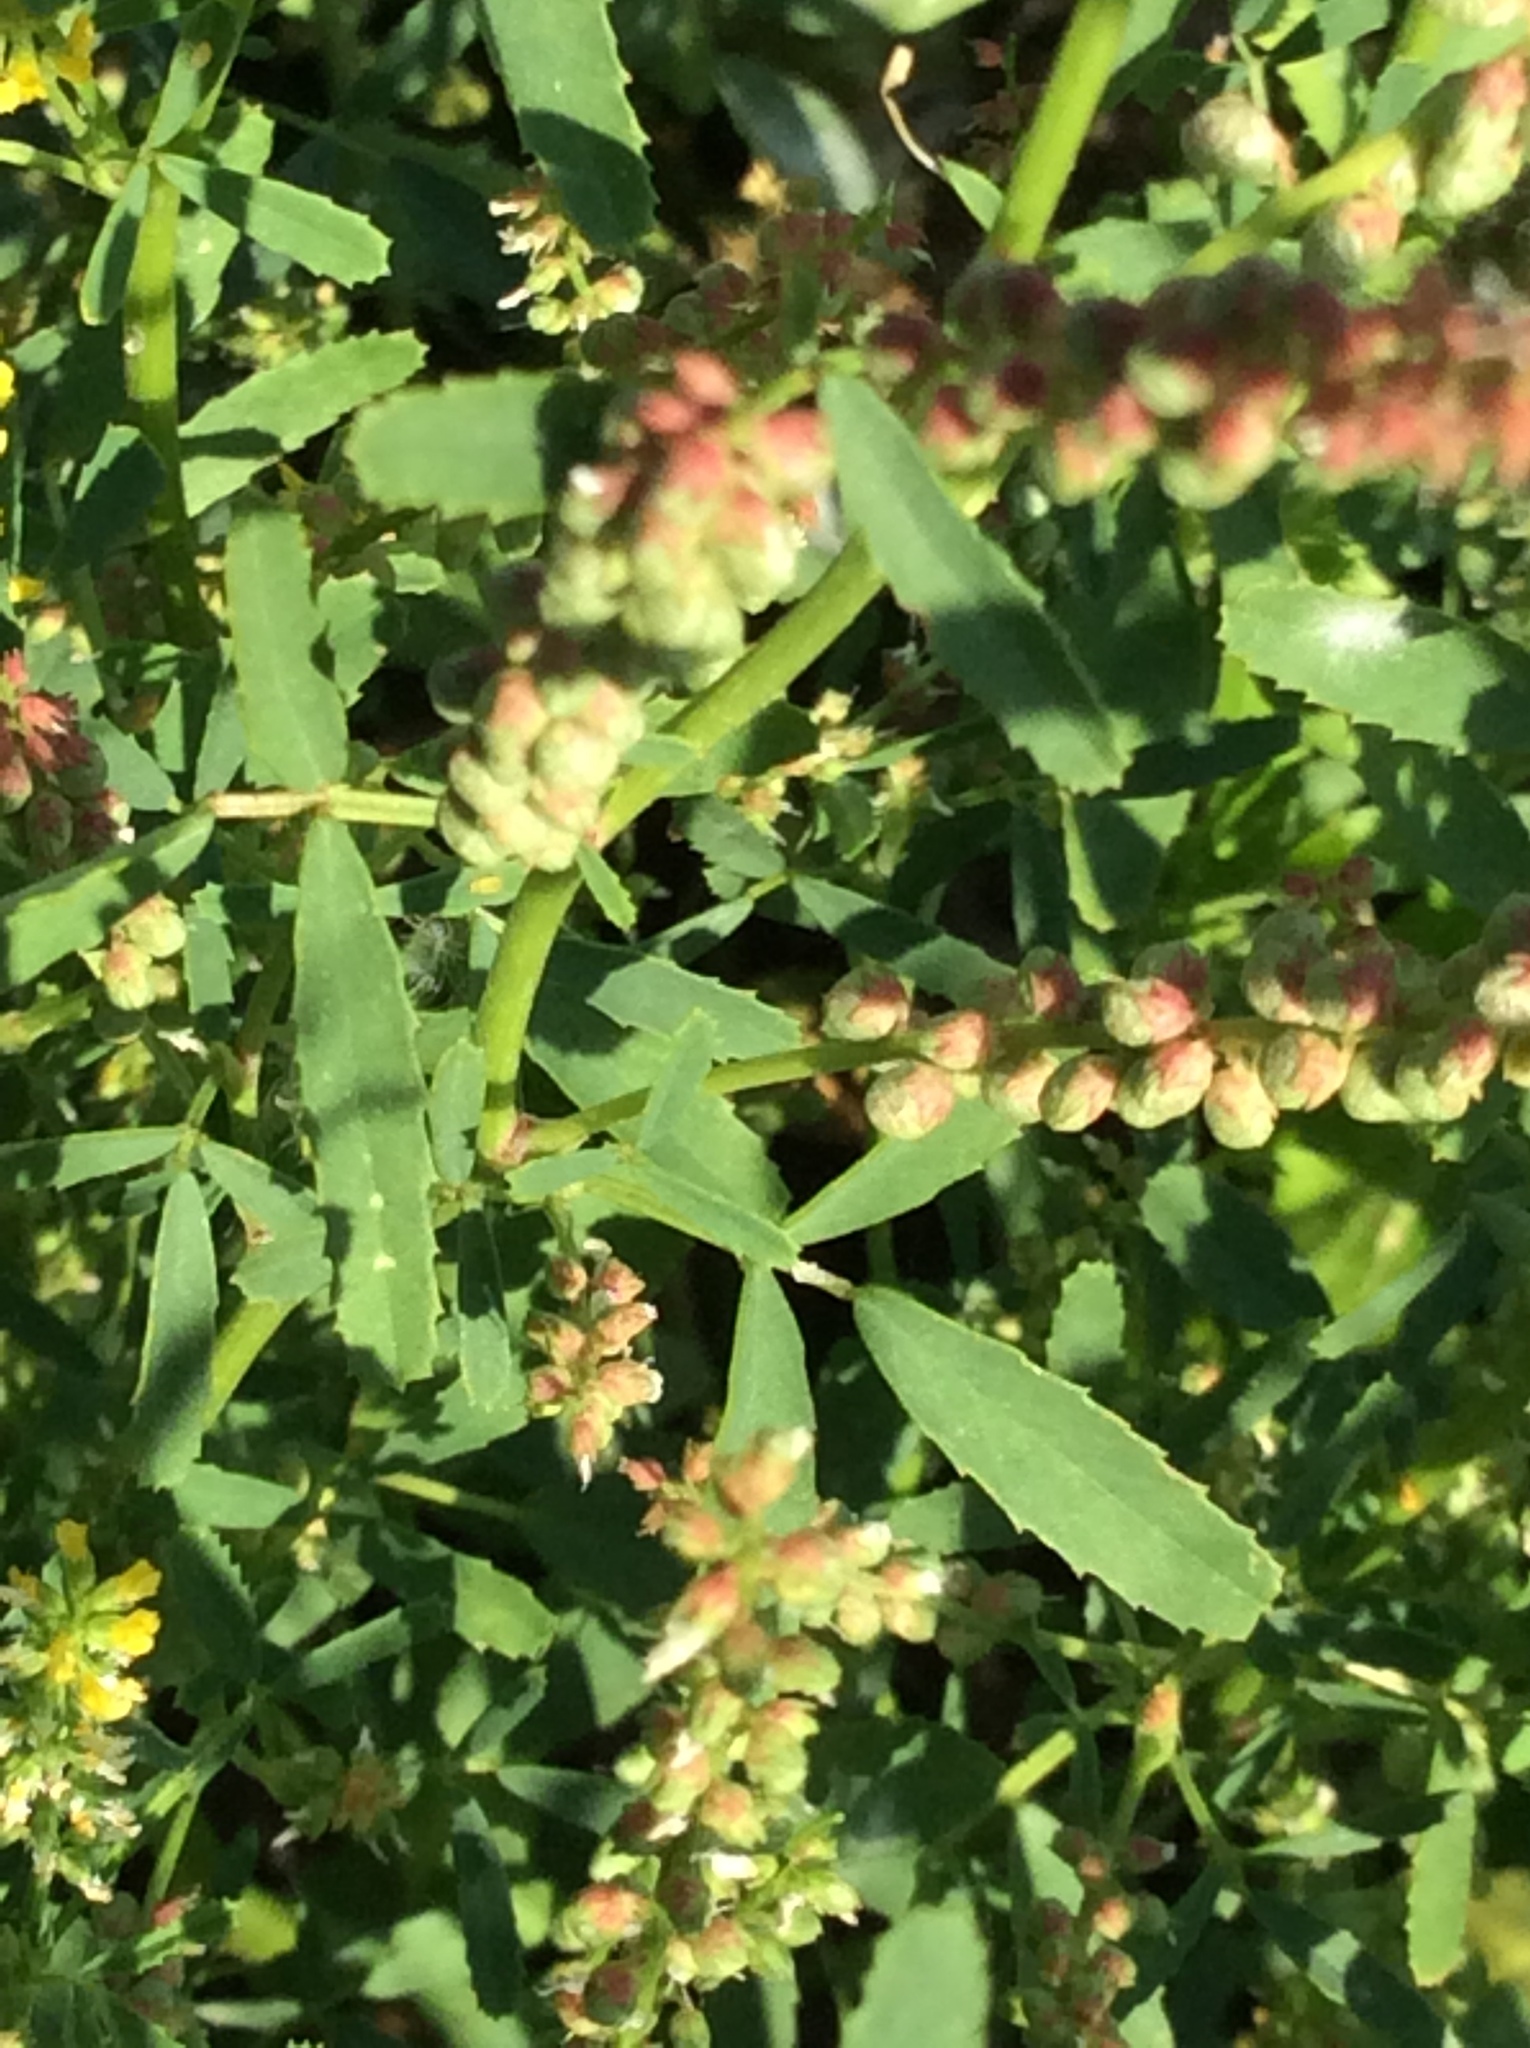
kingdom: Plantae
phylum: Tracheophyta
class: Magnoliopsida
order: Fabales
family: Fabaceae
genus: Melilotus
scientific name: Melilotus indicus
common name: Small melilot
